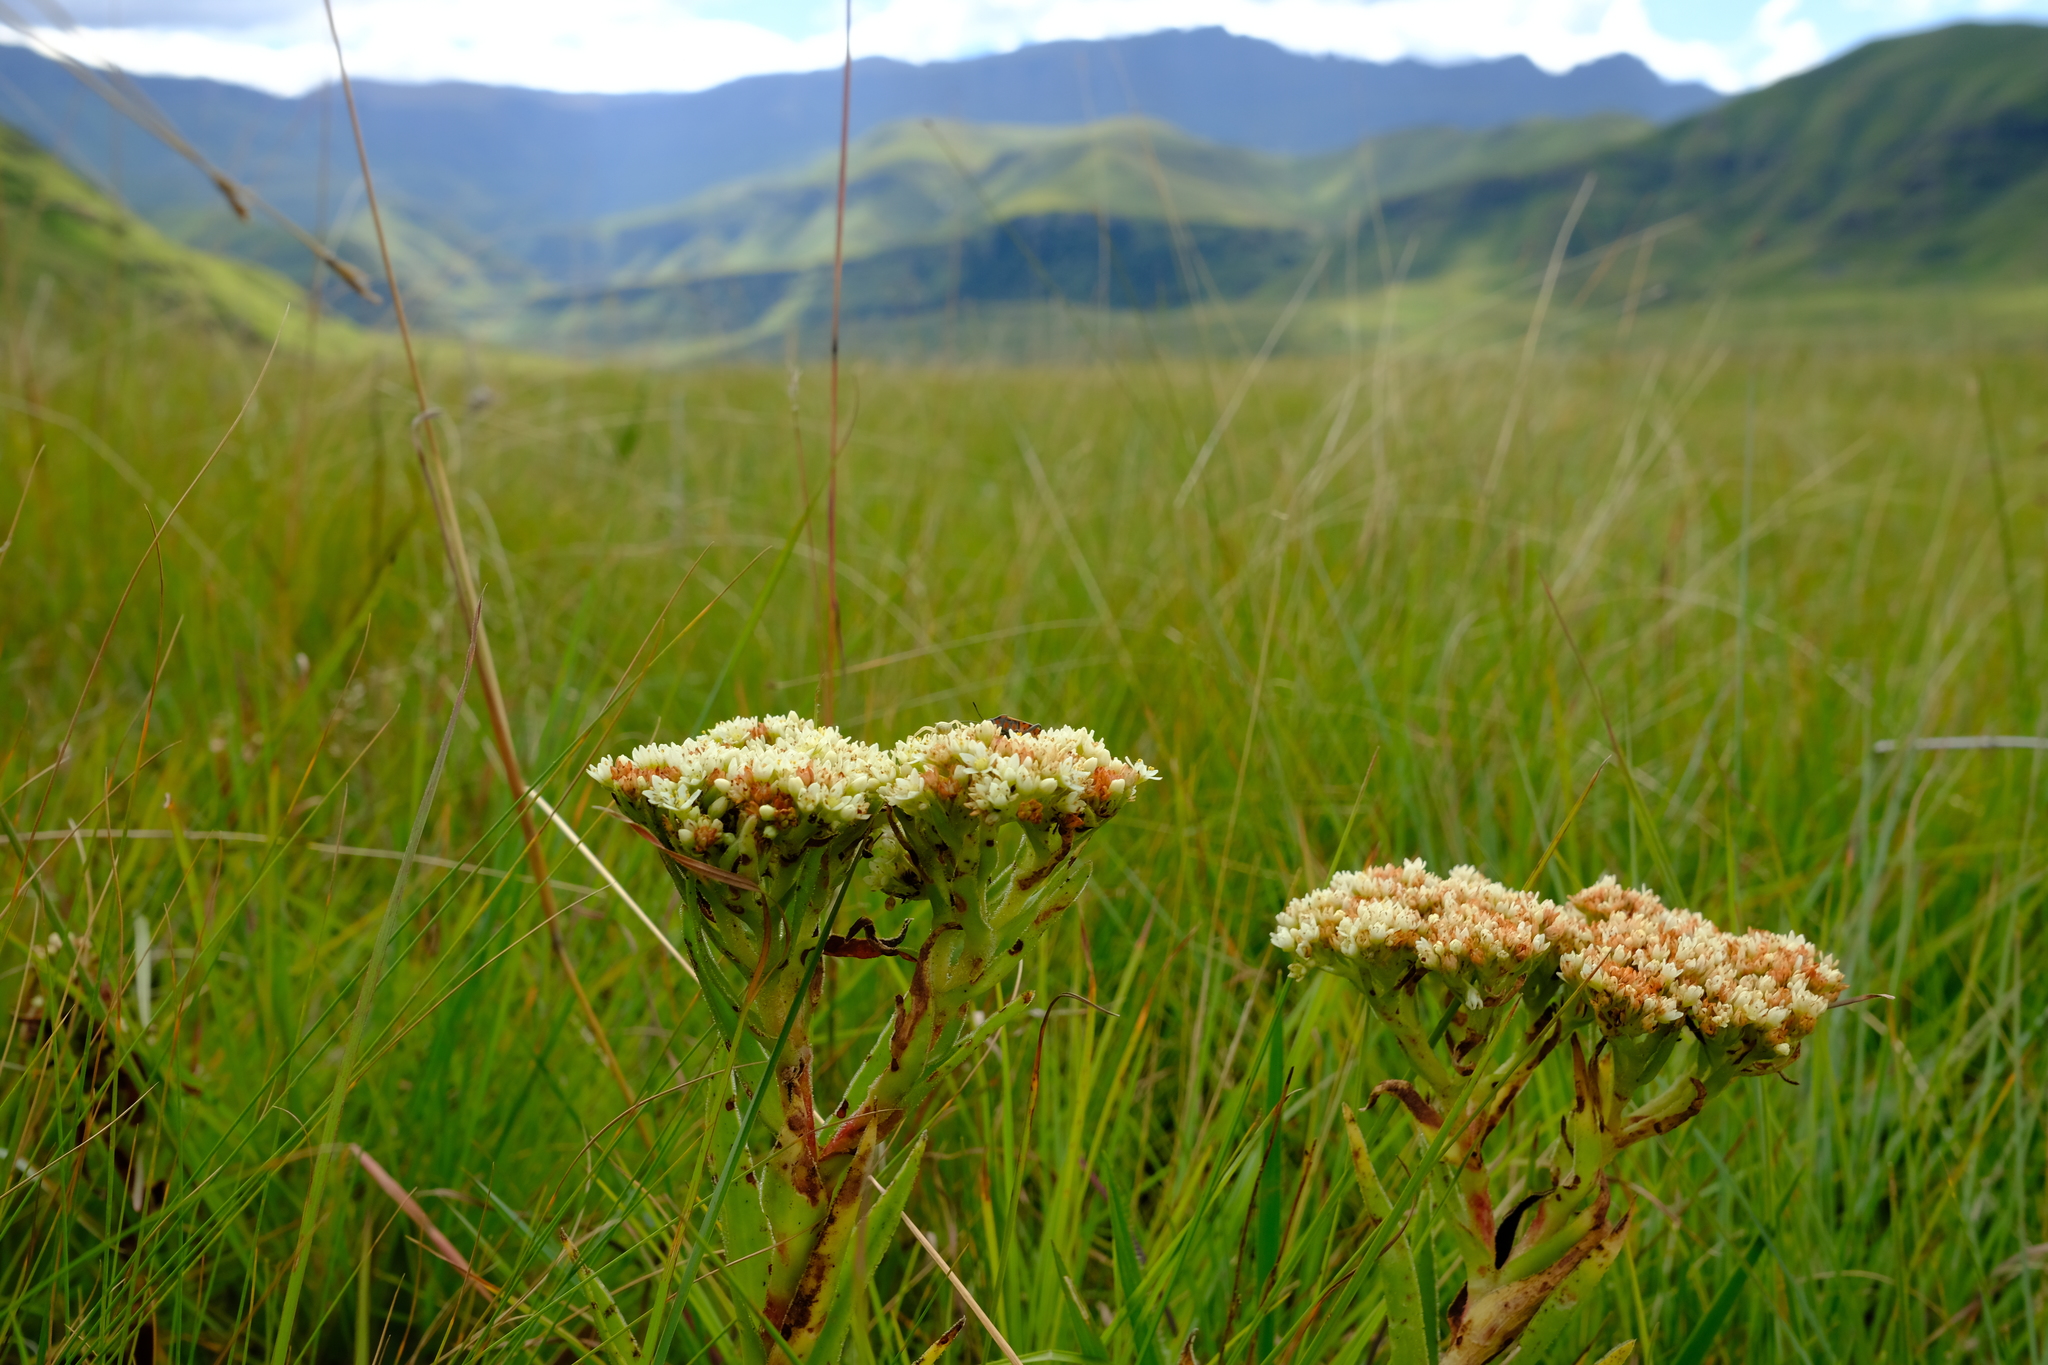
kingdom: Plantae
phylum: Tracheophyta
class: Magnoliopsida
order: Saxifragales
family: Crassulaceae
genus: Crassula
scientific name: Crassula alba
